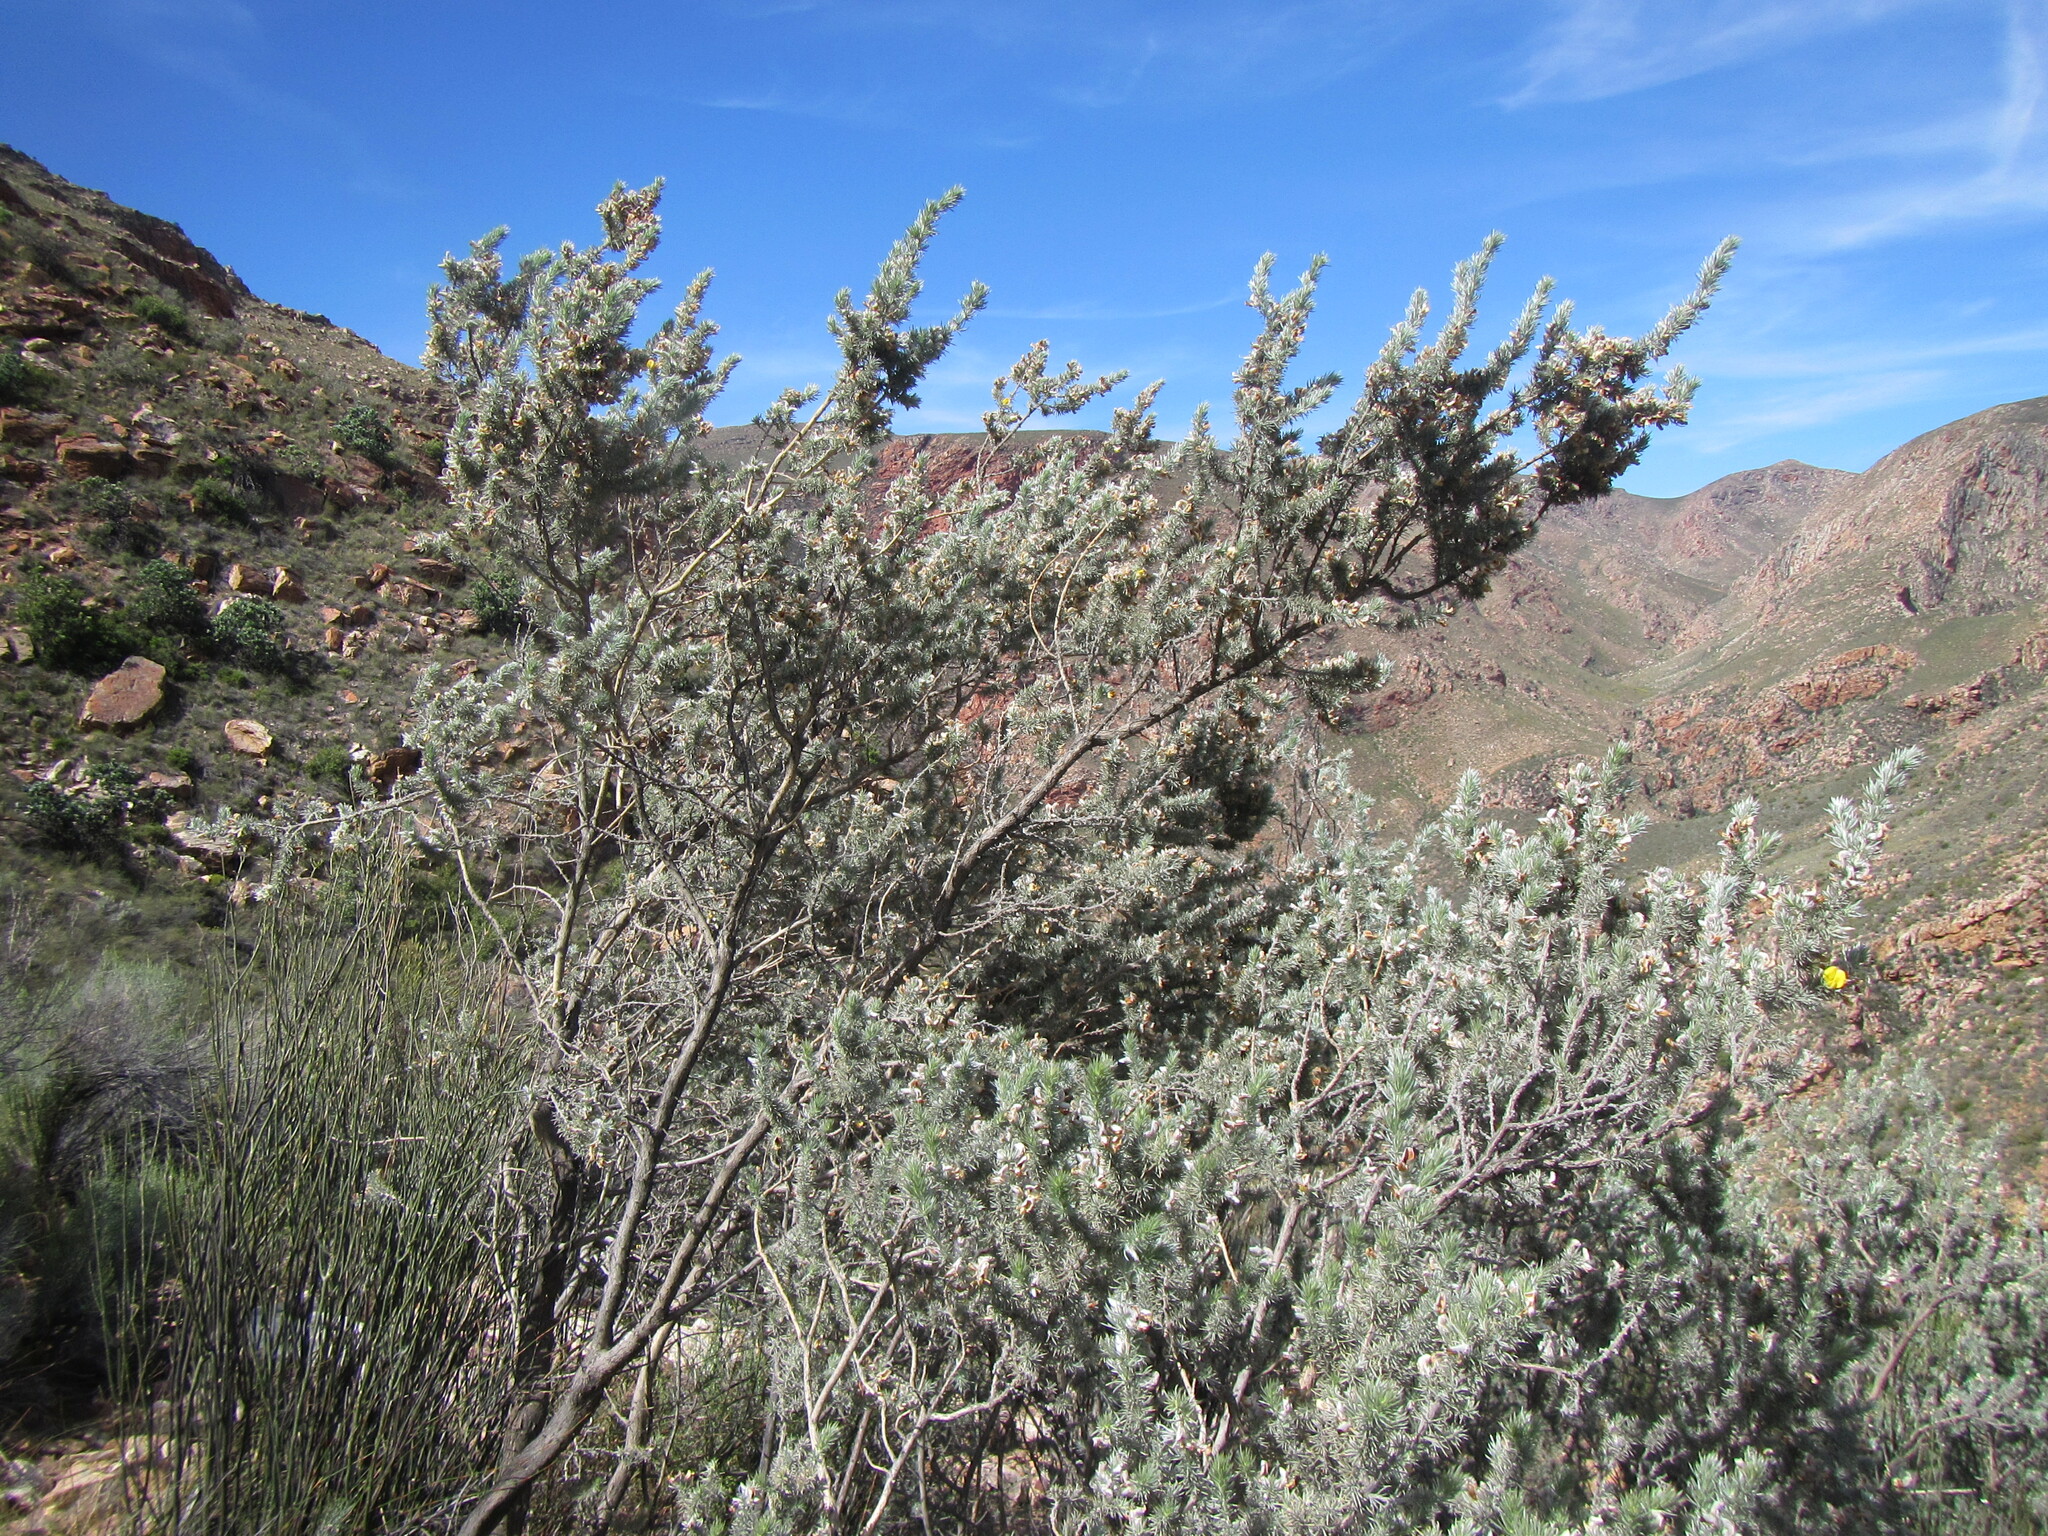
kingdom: Plantae
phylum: Tracheophyta
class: Magnoliopsida
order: Fabales
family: Fabaceae
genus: Aspalathus
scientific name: Aspalathus hystrix
